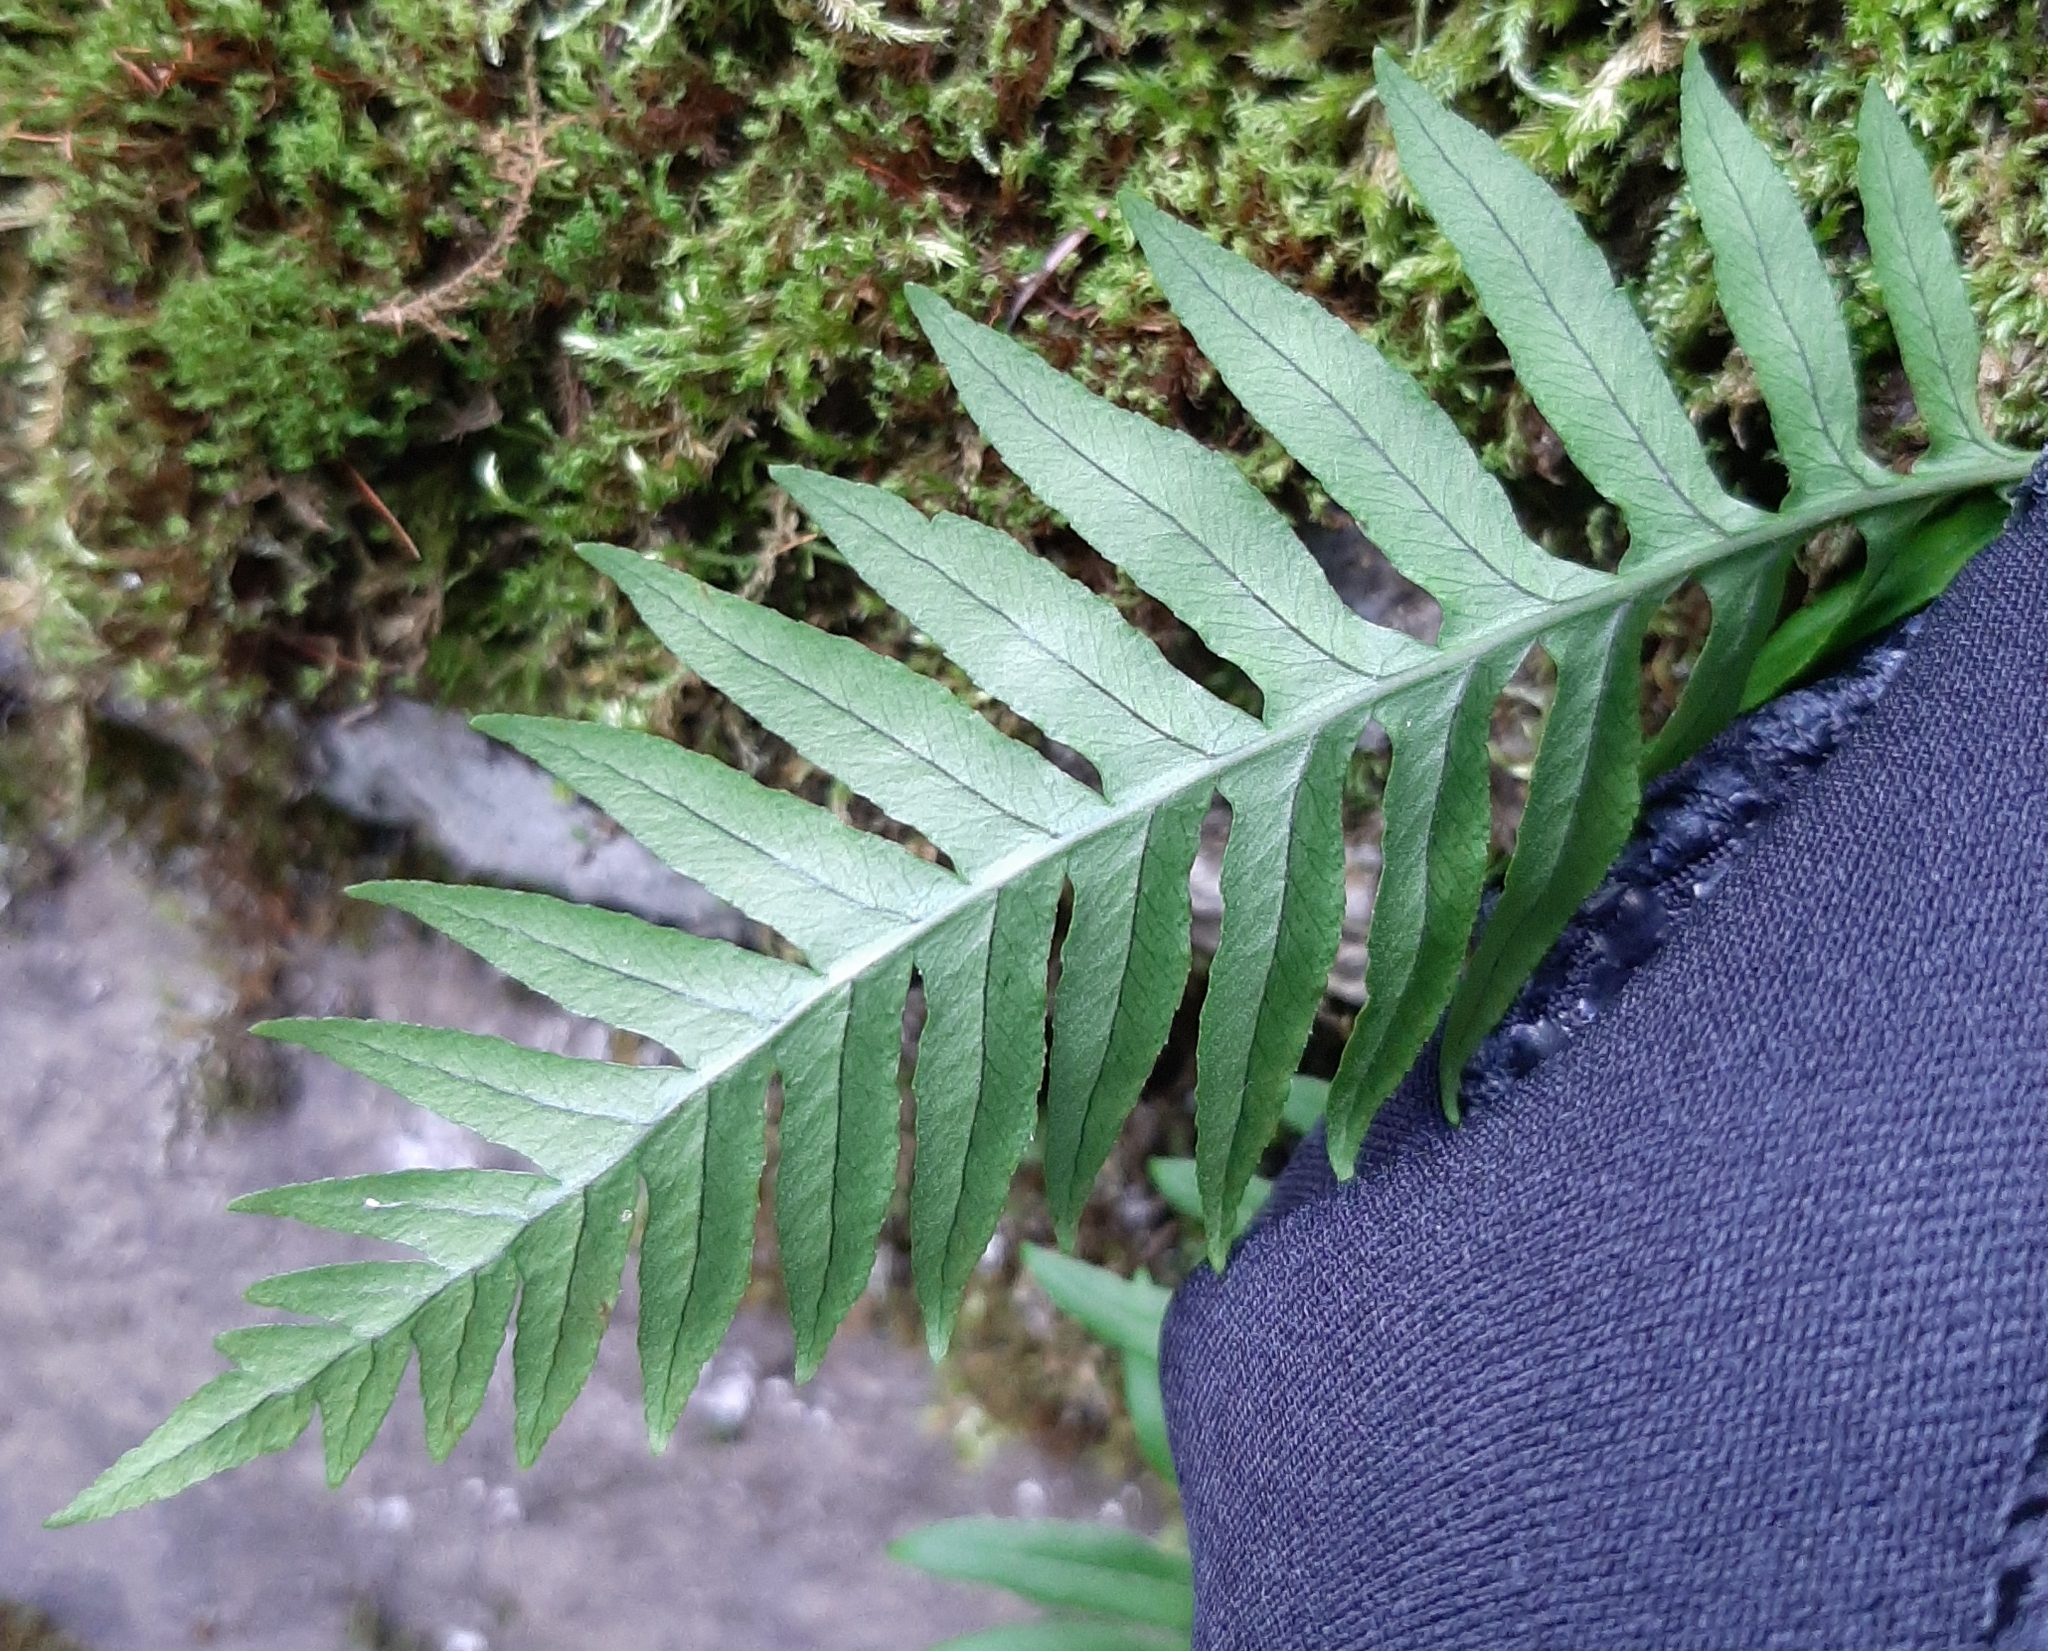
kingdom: Plantae
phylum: Tracheophyta
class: Polypodiopsida
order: Polypodiales
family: Polypodiaceae
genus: Polypodium
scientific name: Polypodium glycyrrhiza
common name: Licorice fern
